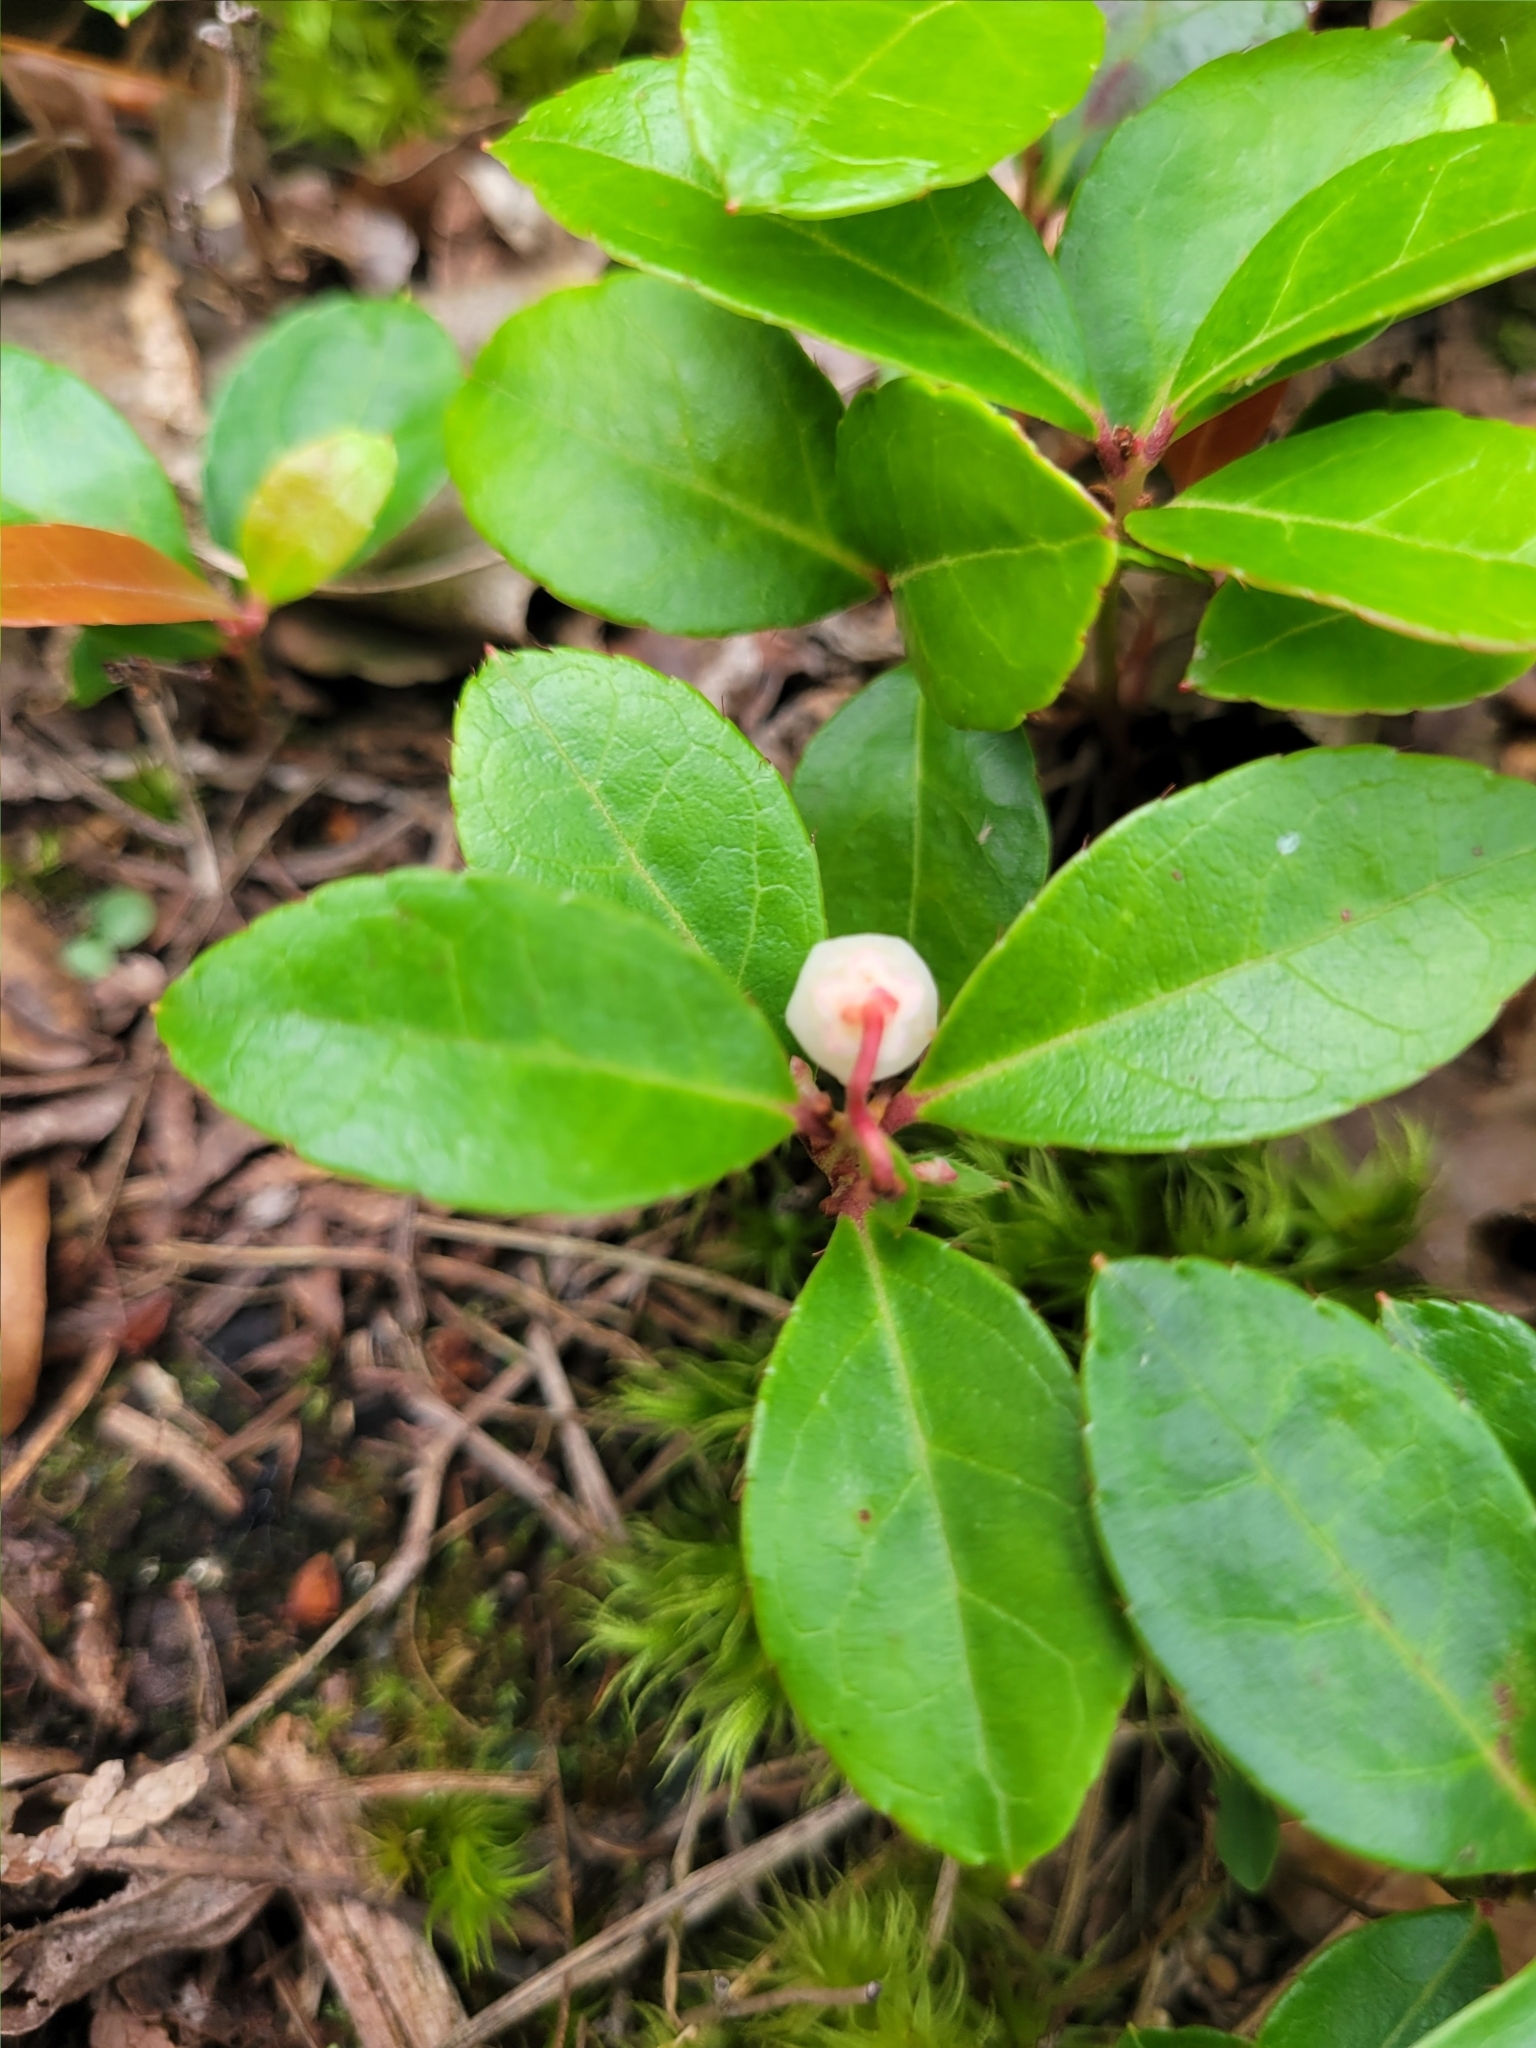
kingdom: Plantae
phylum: Tracheophyta
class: Magnoliopsida
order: Ericales
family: Ericaceae
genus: Gaultheria
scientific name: Gaultheria procumbens
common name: Checkerberry
